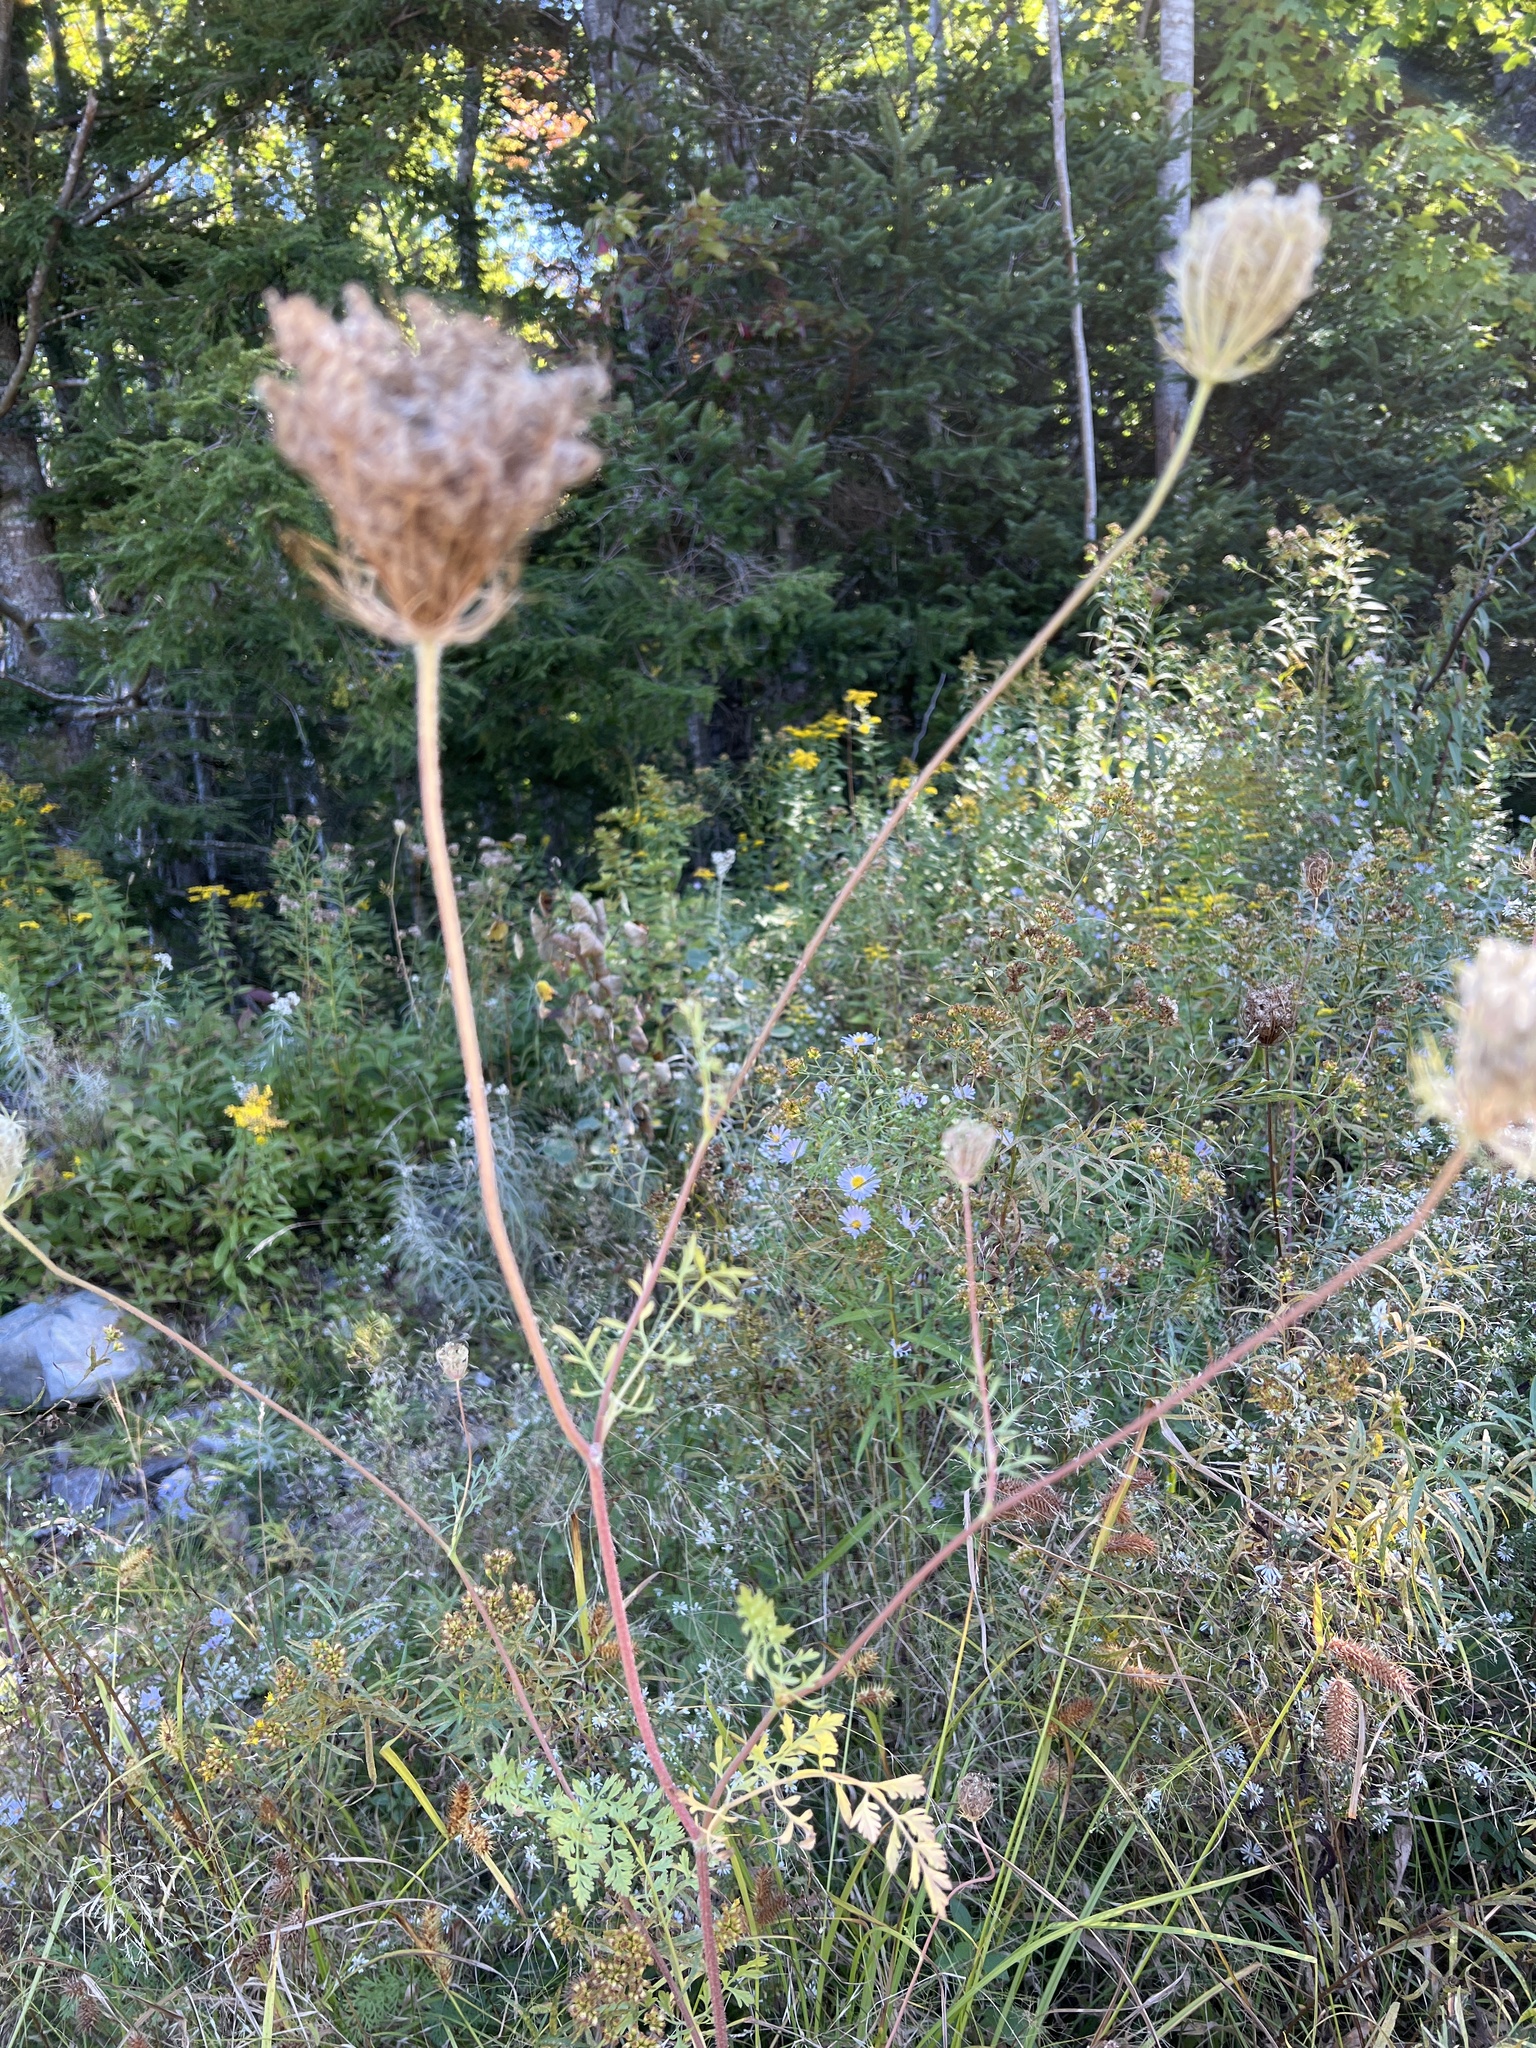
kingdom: Plantae
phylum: Tracheophyta
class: Magnoliopsida
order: Apiales
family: Apiaceae
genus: Daucus
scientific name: Daucus carota
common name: Wild carrot
